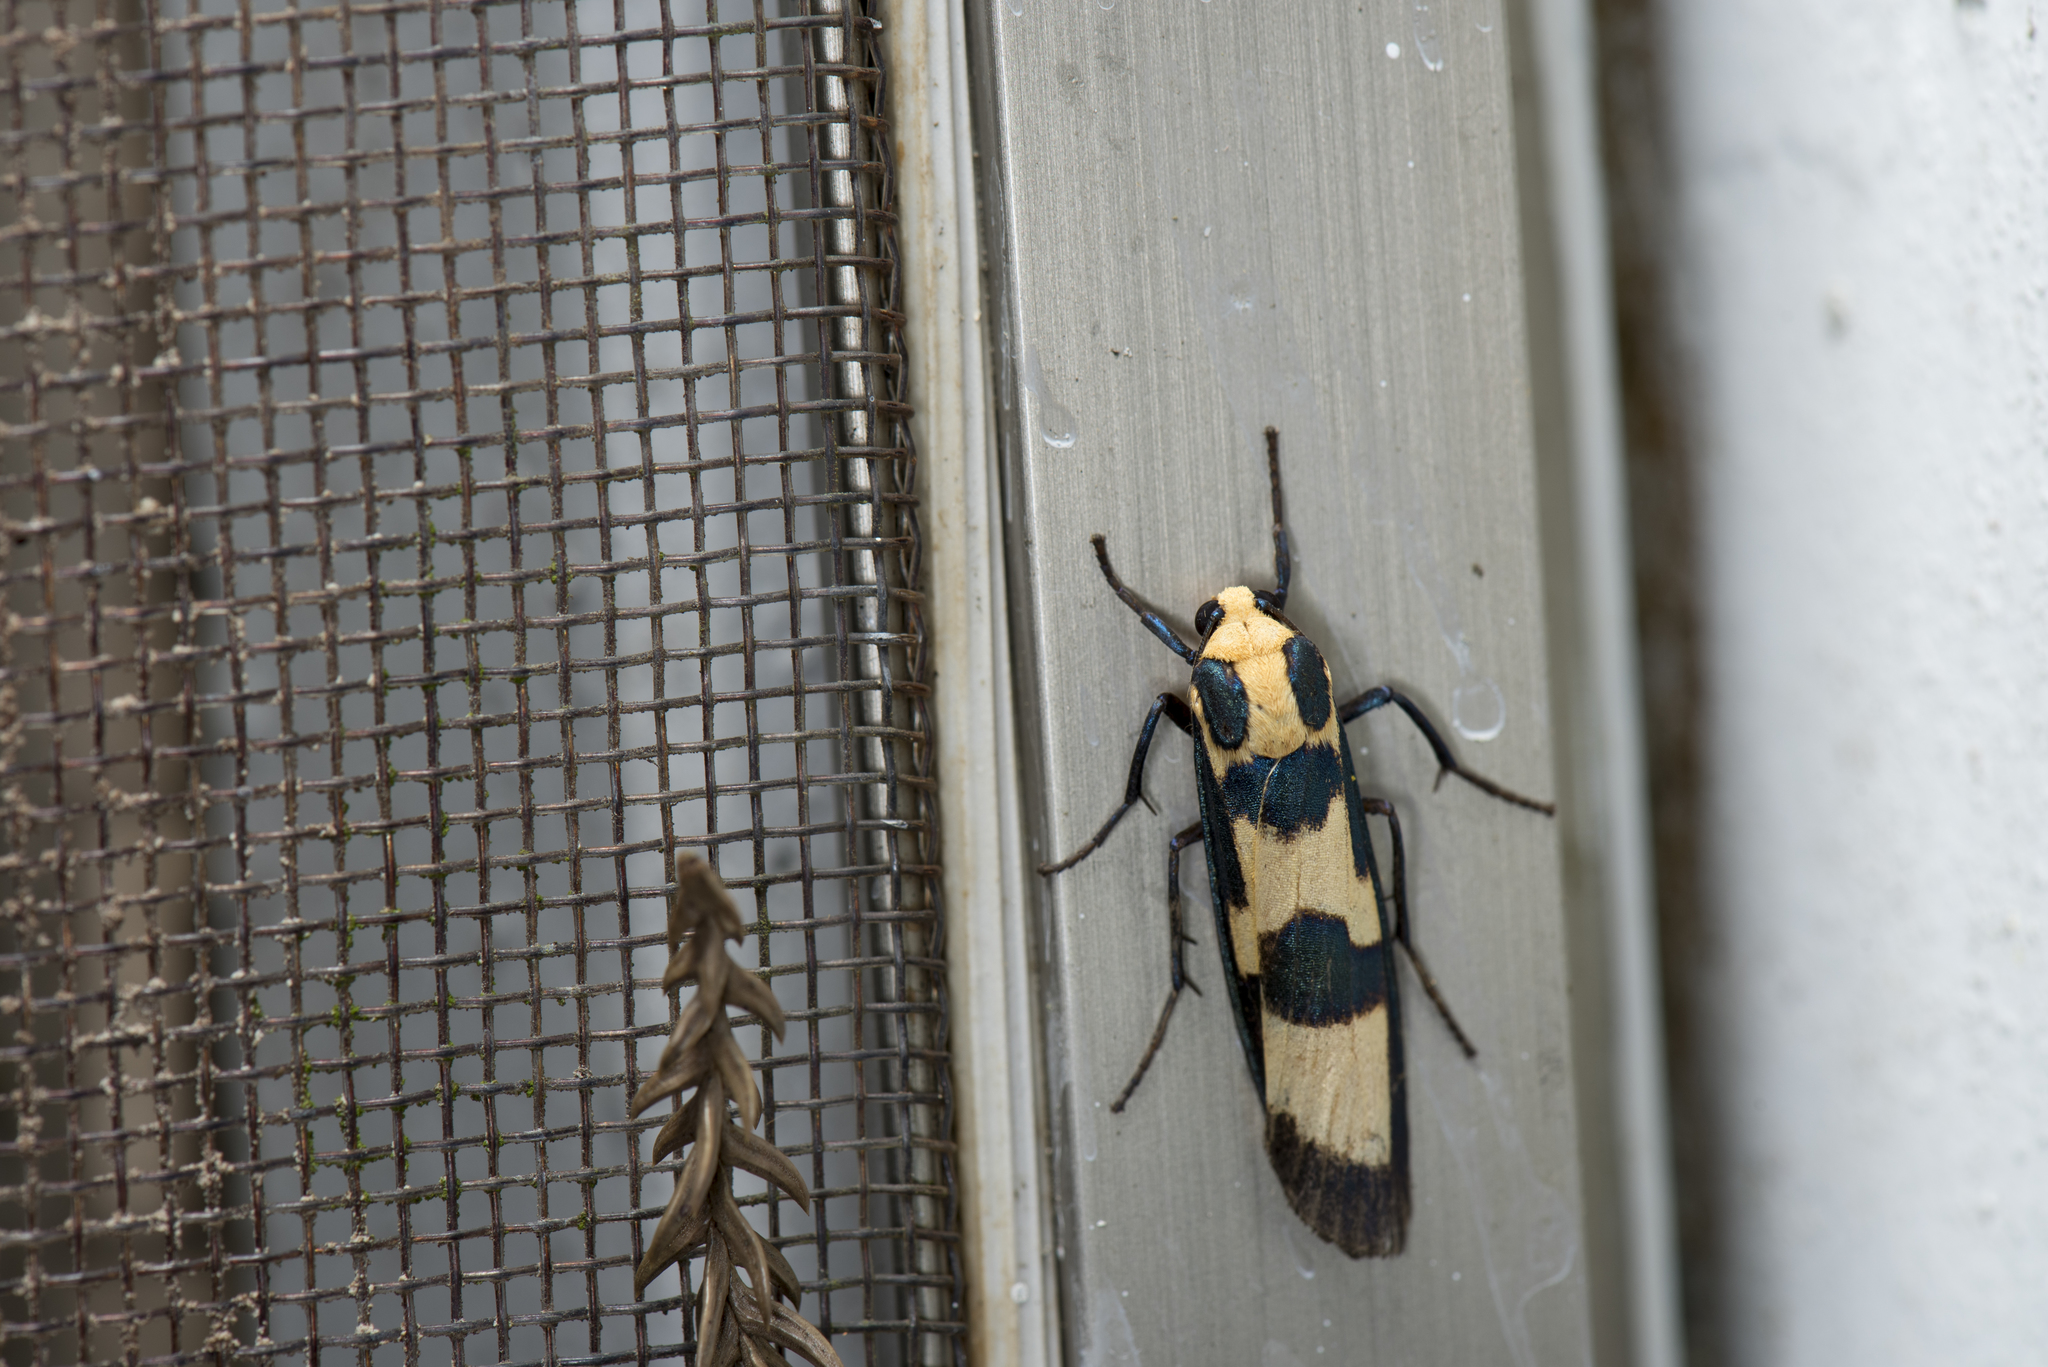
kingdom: Animalia
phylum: Arthropoda
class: Insecta
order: Lepidoptera
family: Erebidae
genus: Chrysaeglia
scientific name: Chrysaeglia magnifica
